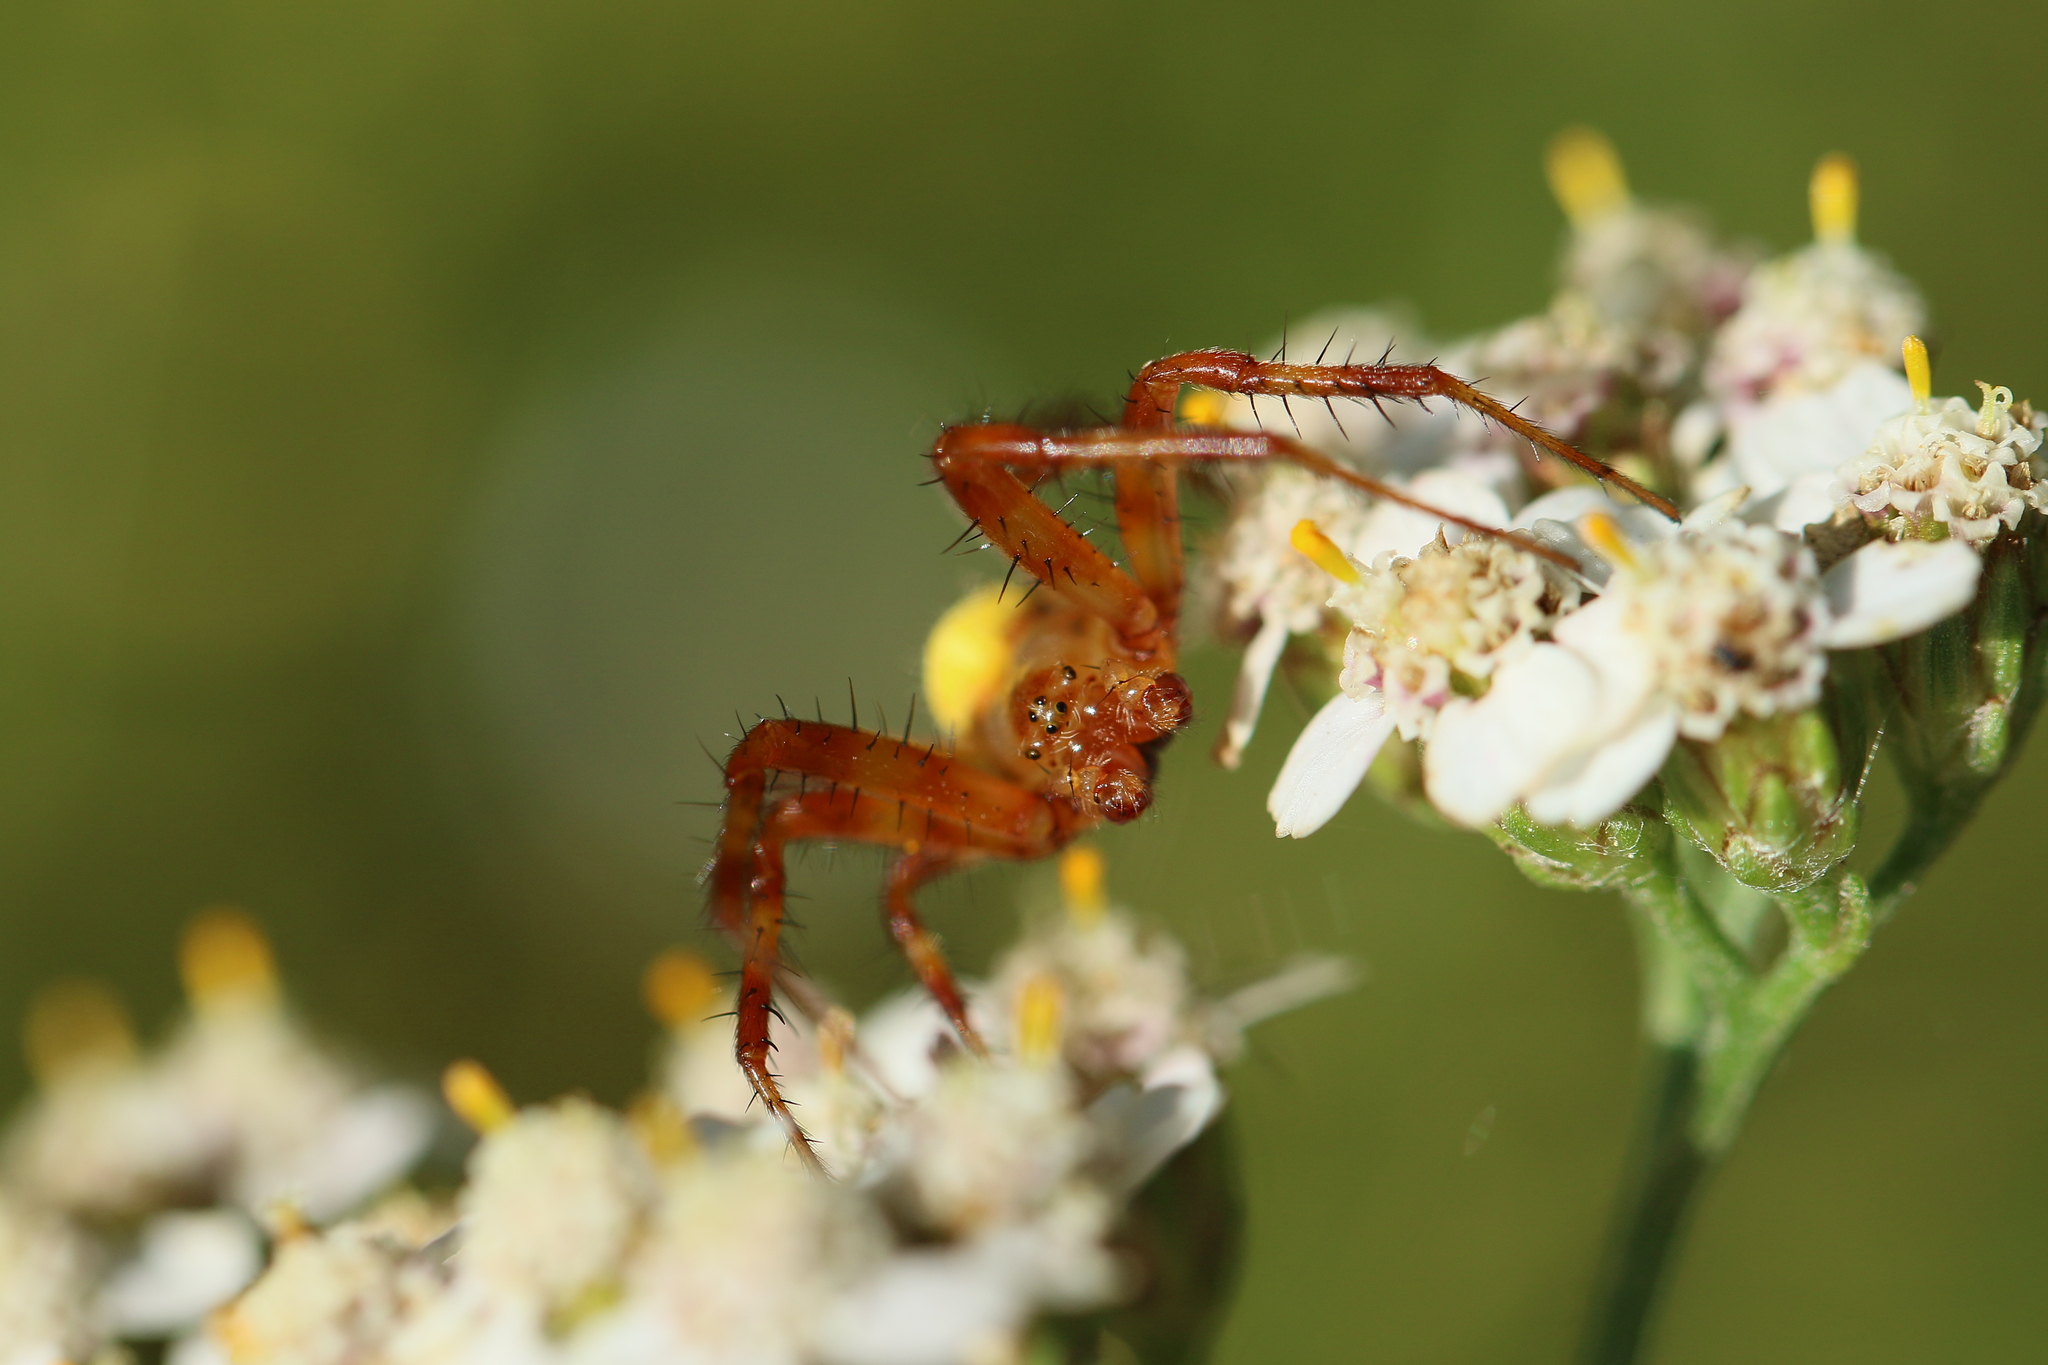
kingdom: Animalia
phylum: Arthropoda
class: Arachnida
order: Araneae
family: Araneidae
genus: Araneus
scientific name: Araneus trifolium
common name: Shamrock orbweaver
